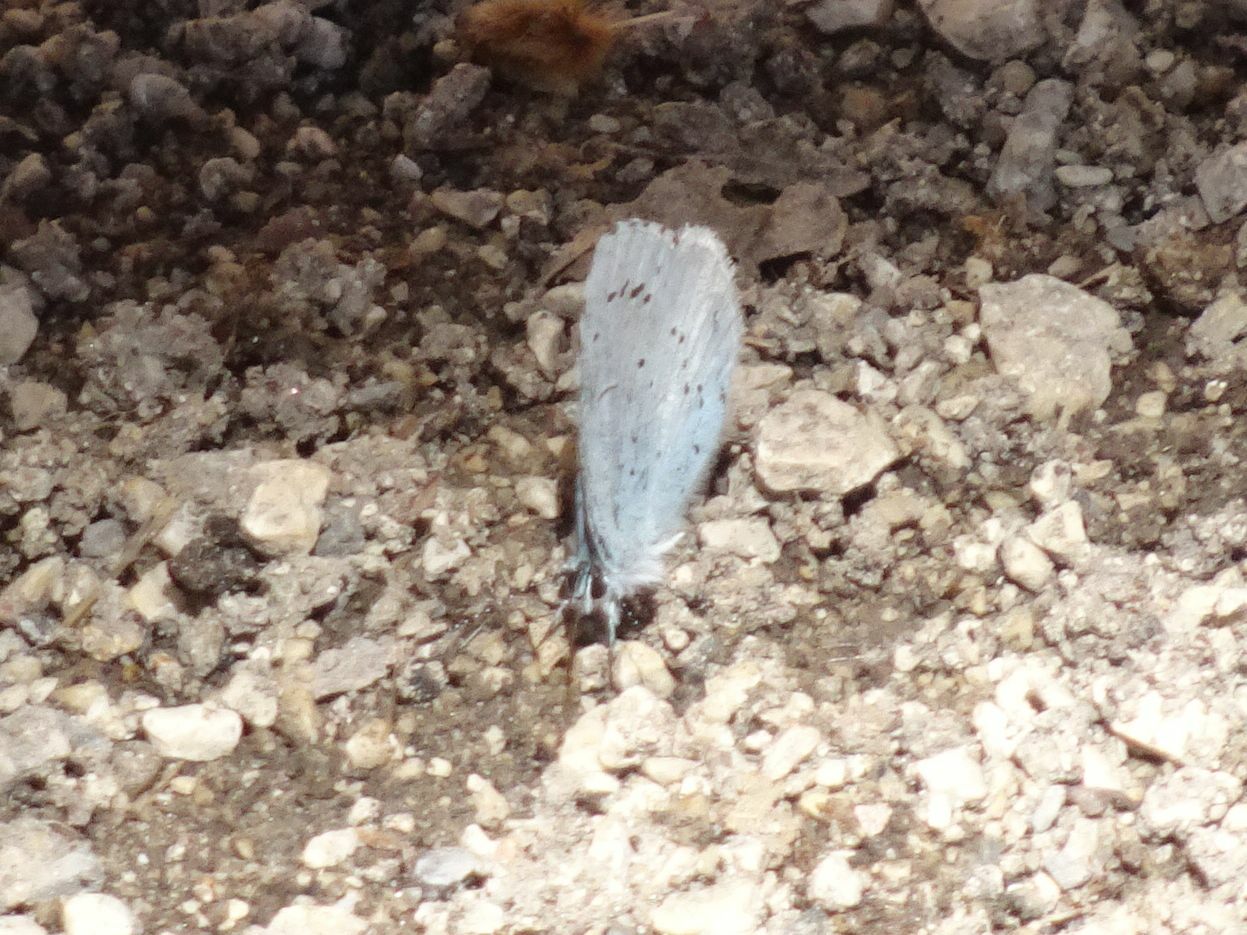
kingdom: Animalia
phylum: Arthropoda
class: Insecta
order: Lepidoptera
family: Lycaenidae
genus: Celastrina
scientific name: Celastrina argiolus
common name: Holly blue
